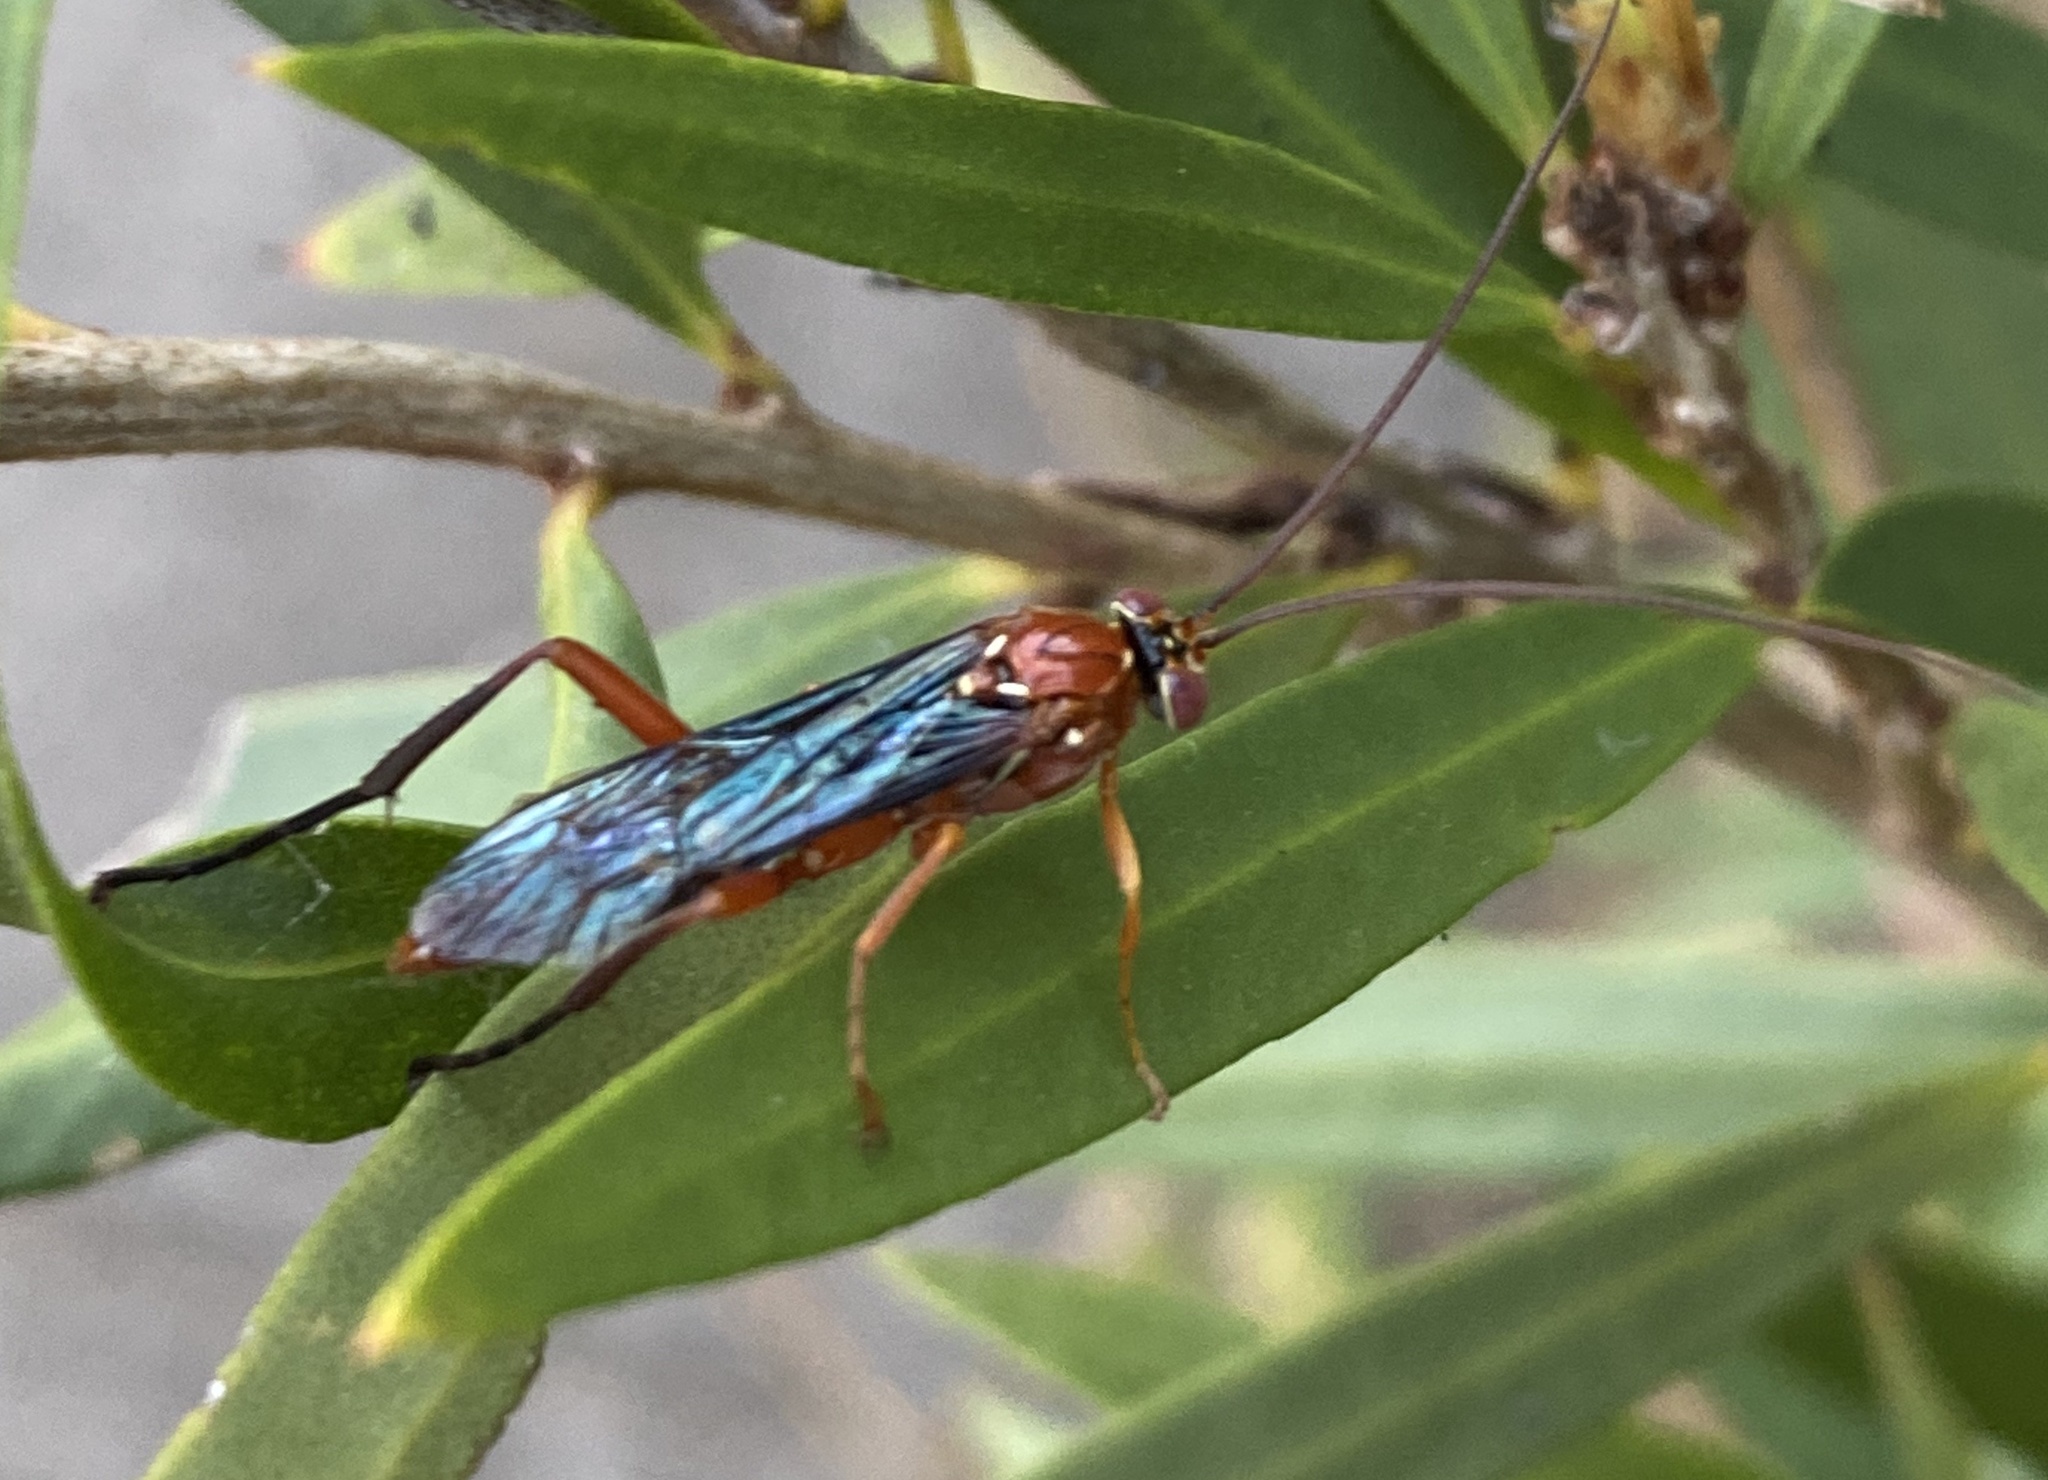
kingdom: Animalia
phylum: Arthropoda
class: Insecta
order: Hymenoptera
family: Ichneumonidae
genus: Lissopimpla
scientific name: Lissopimpla excelsa
